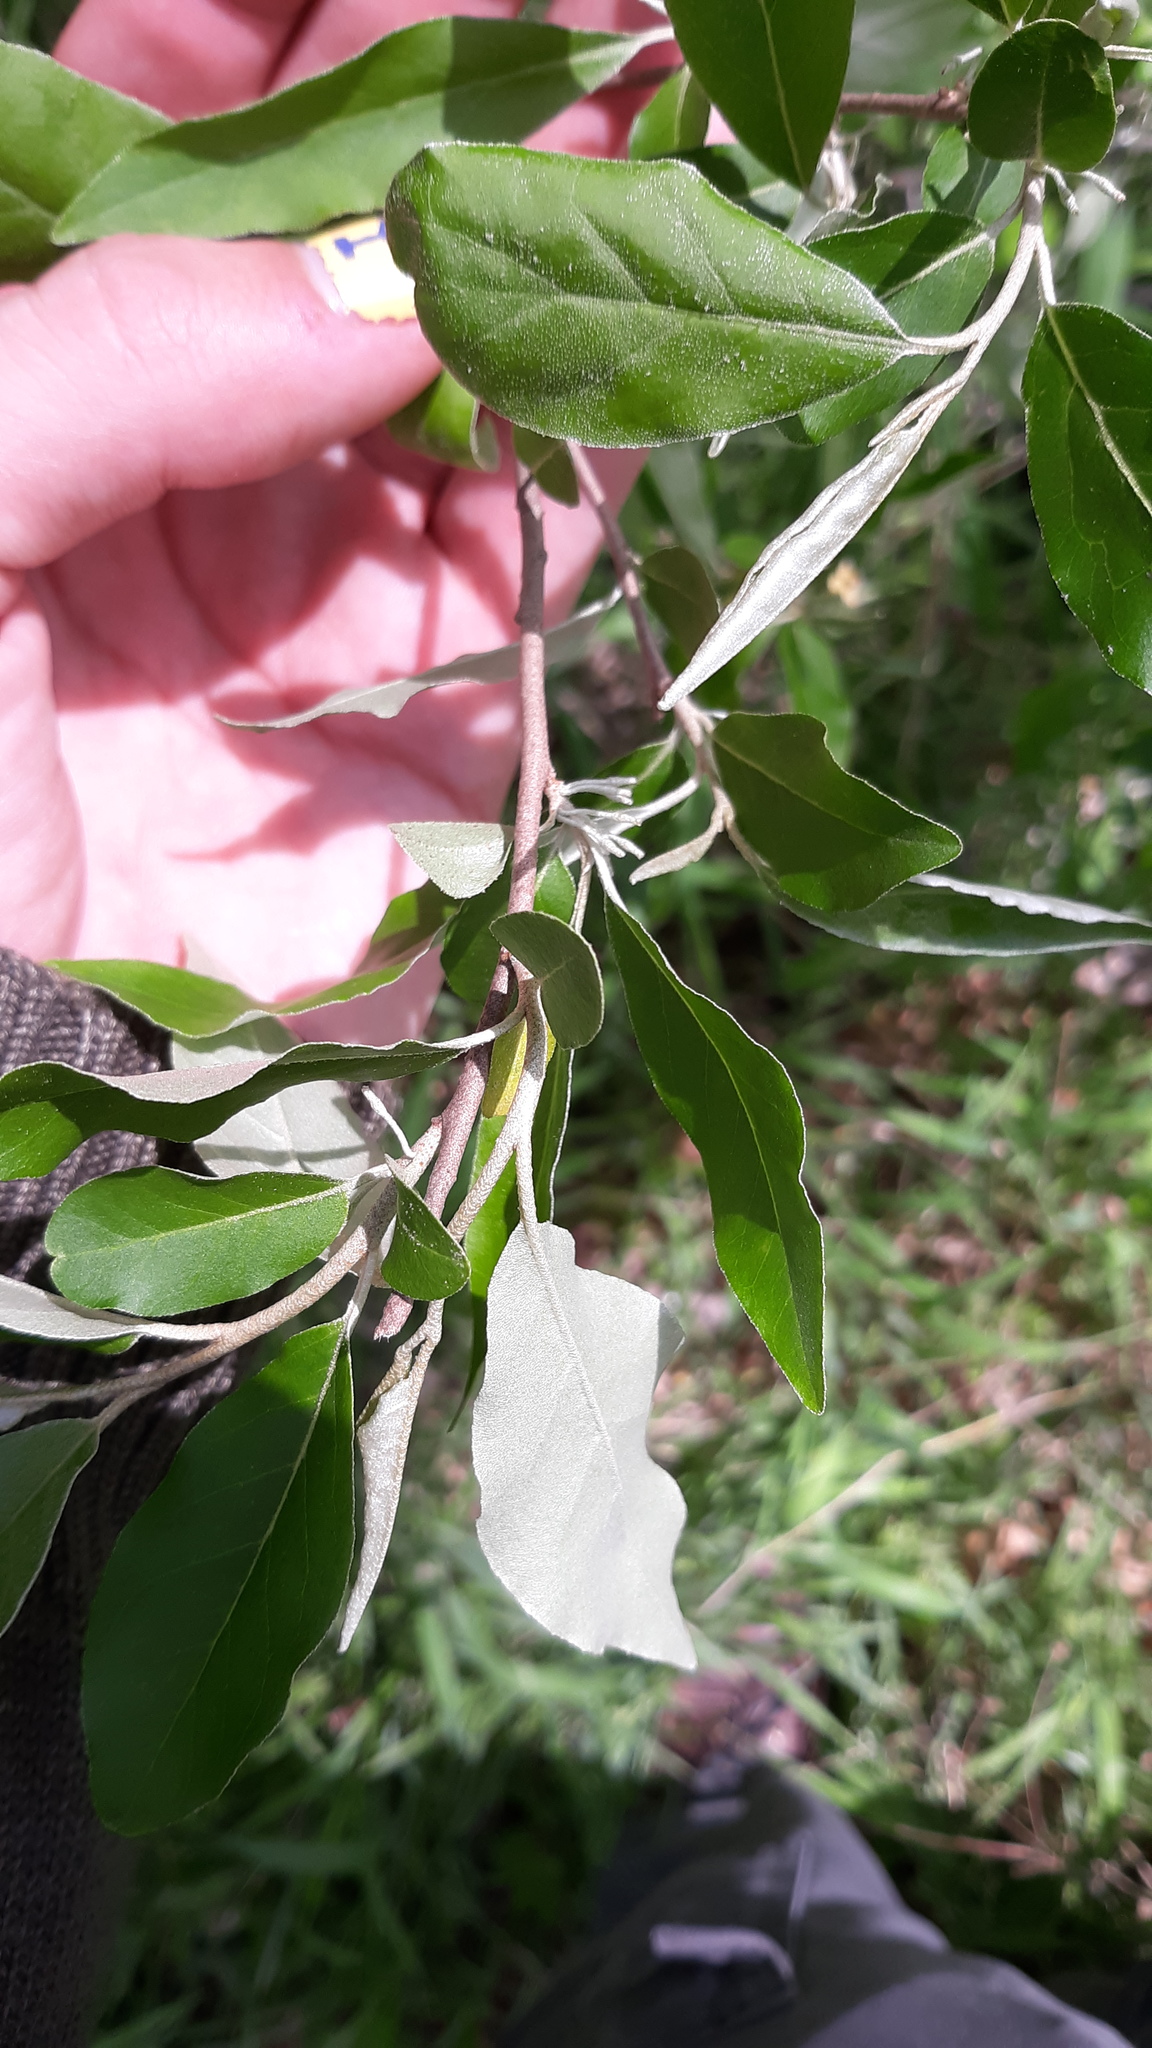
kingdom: Plantae
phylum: Tracheophyta
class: Magnoliopsida
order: Rosales
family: Elaeagnaceae
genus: Elaeagnus
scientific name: Elaeagnus umbellata
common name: Autumn olive
